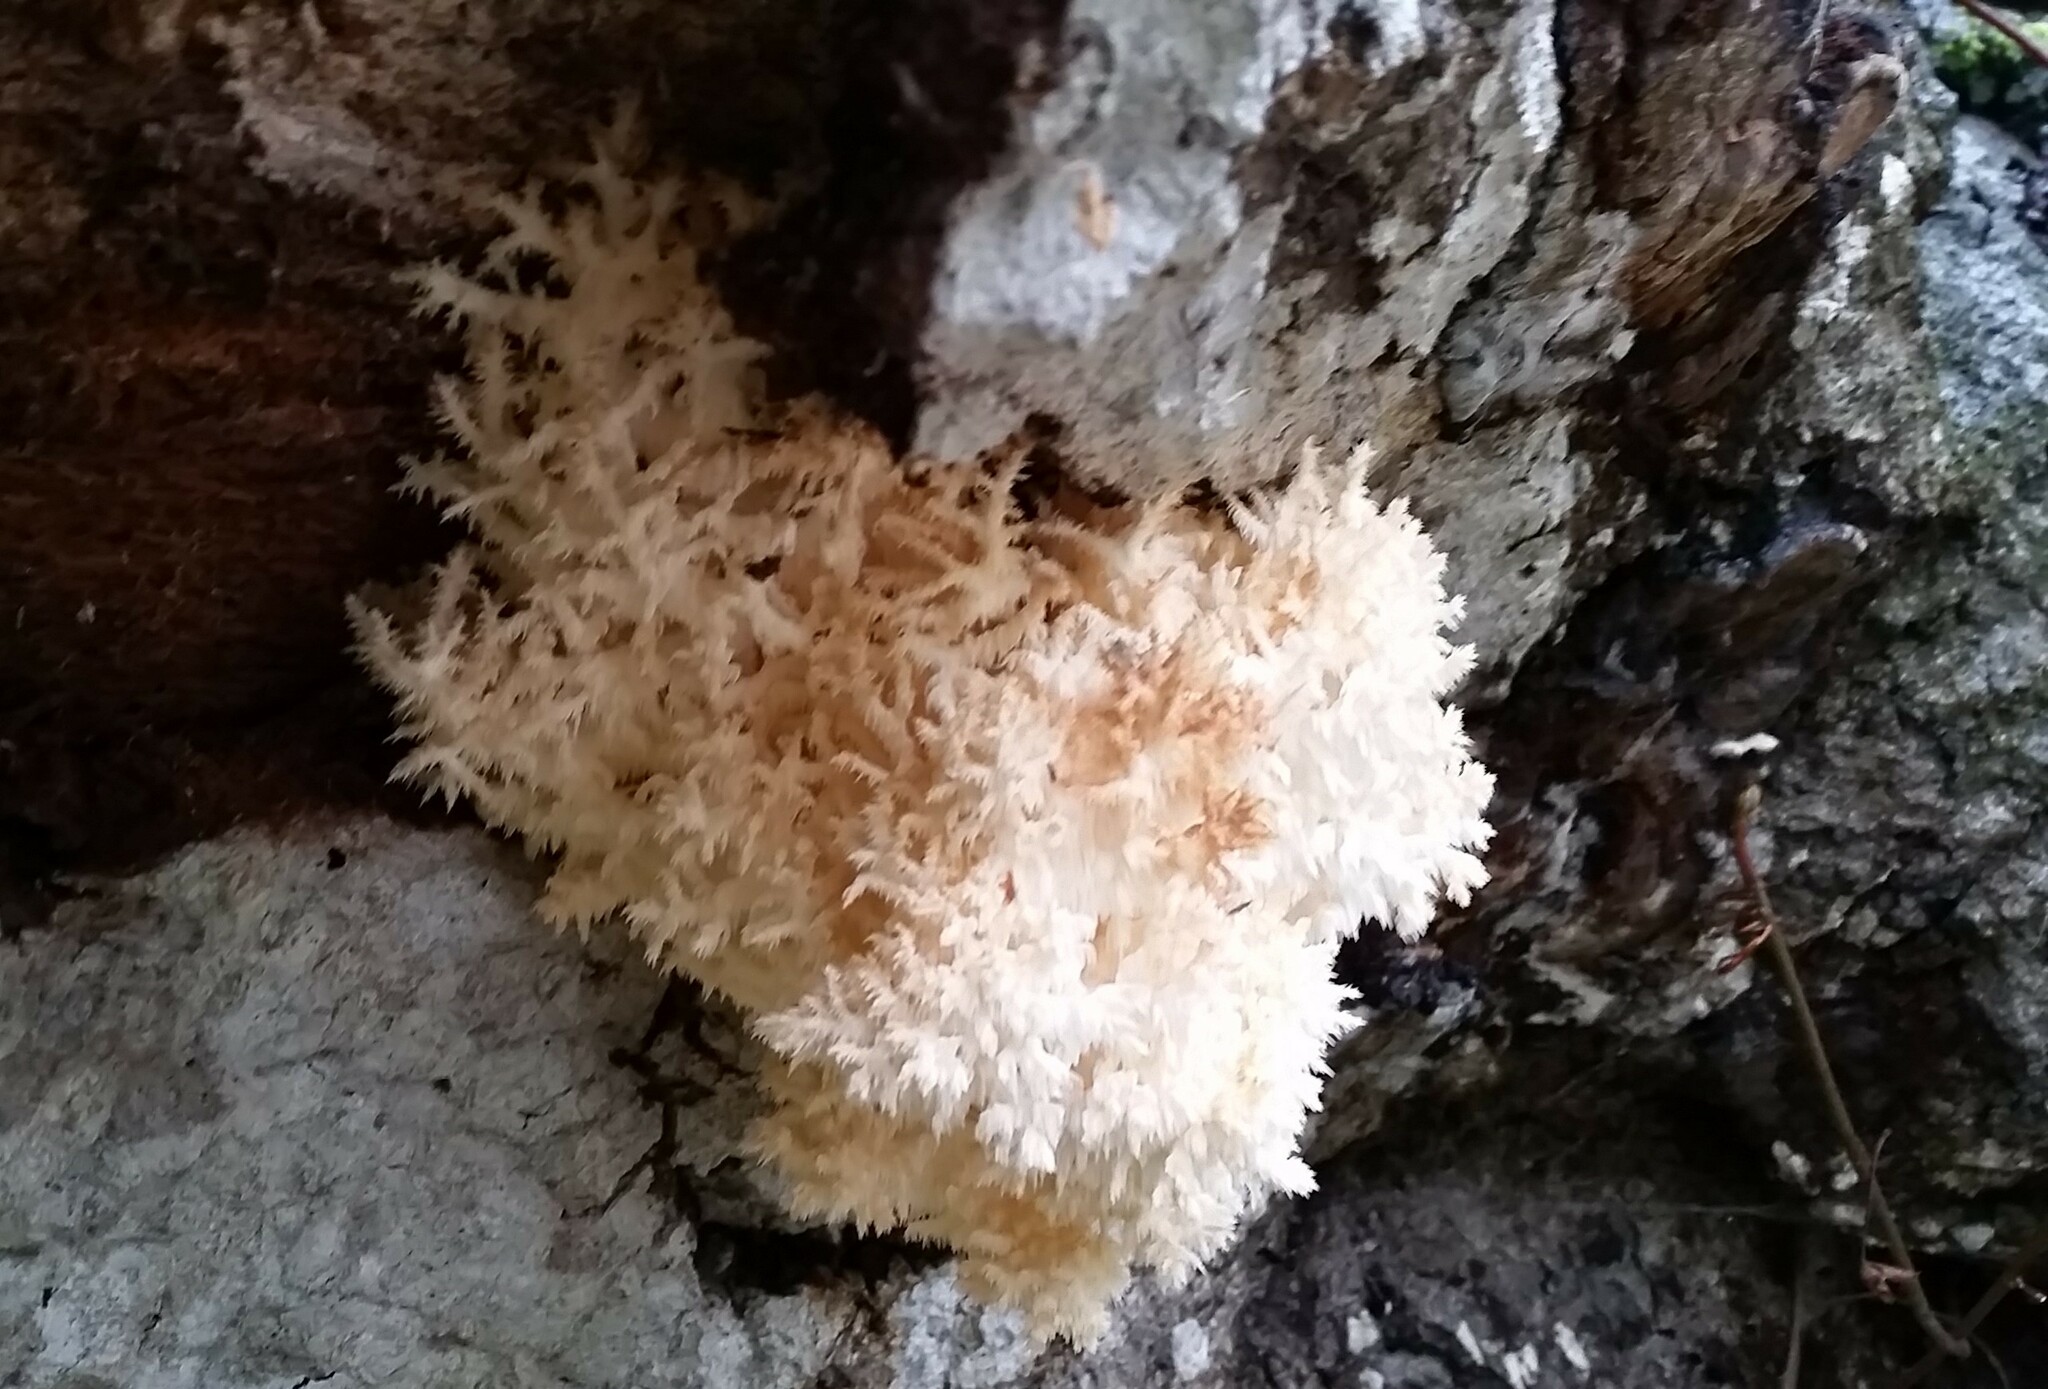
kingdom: Fungi
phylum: Basidiomycota
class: Agaricomycetes
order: Russulales
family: Hericiaceae
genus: Hericium
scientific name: Hericium coralloides
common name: Coral tooth
